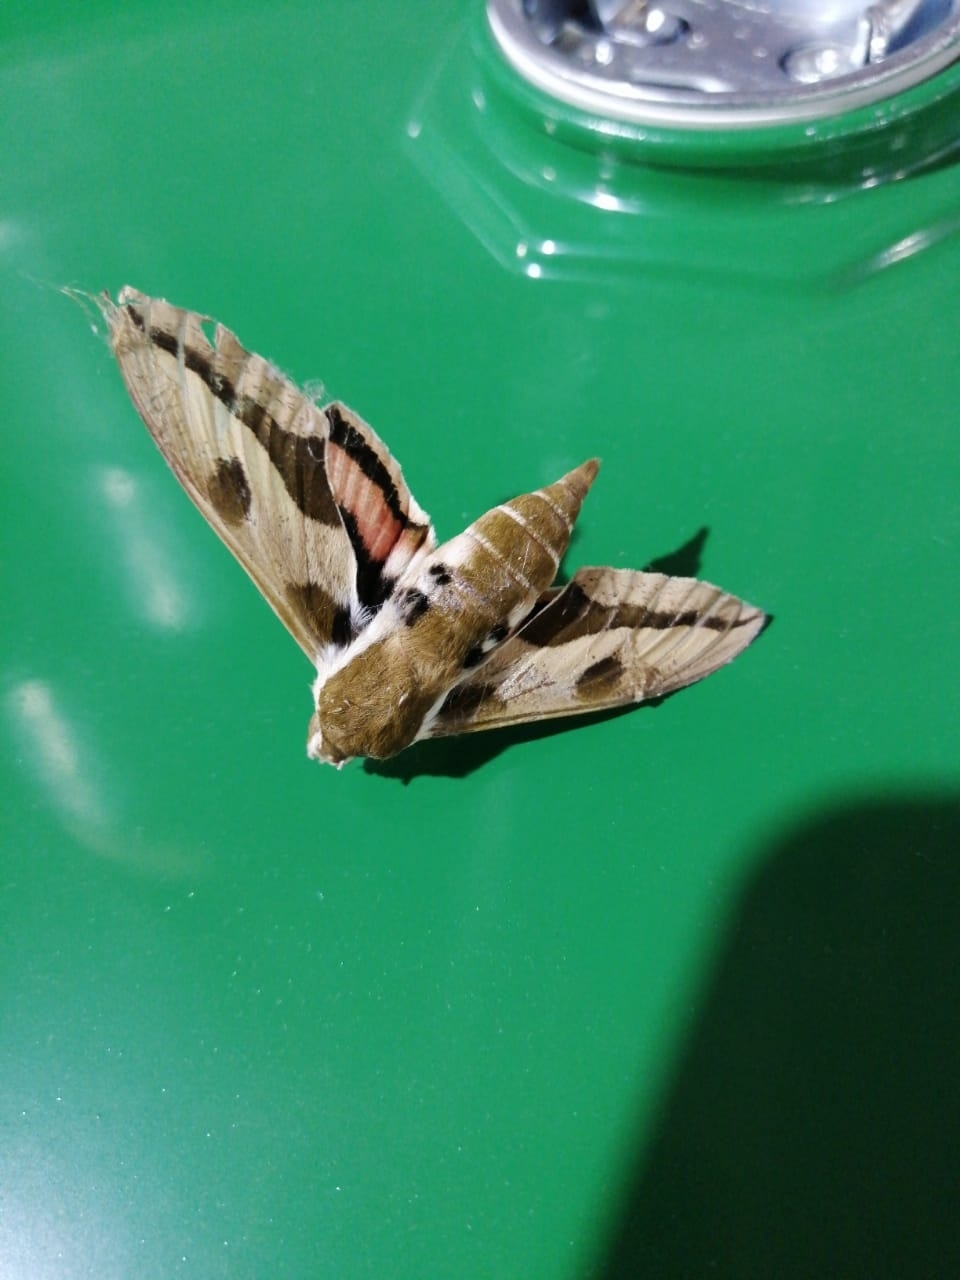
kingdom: Animalia
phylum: Arthropoda
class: Insecta
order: Lepidoptera
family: Sphingidae
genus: Hyles
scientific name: Hyles euphorbiae
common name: Spurge hawk-moth
